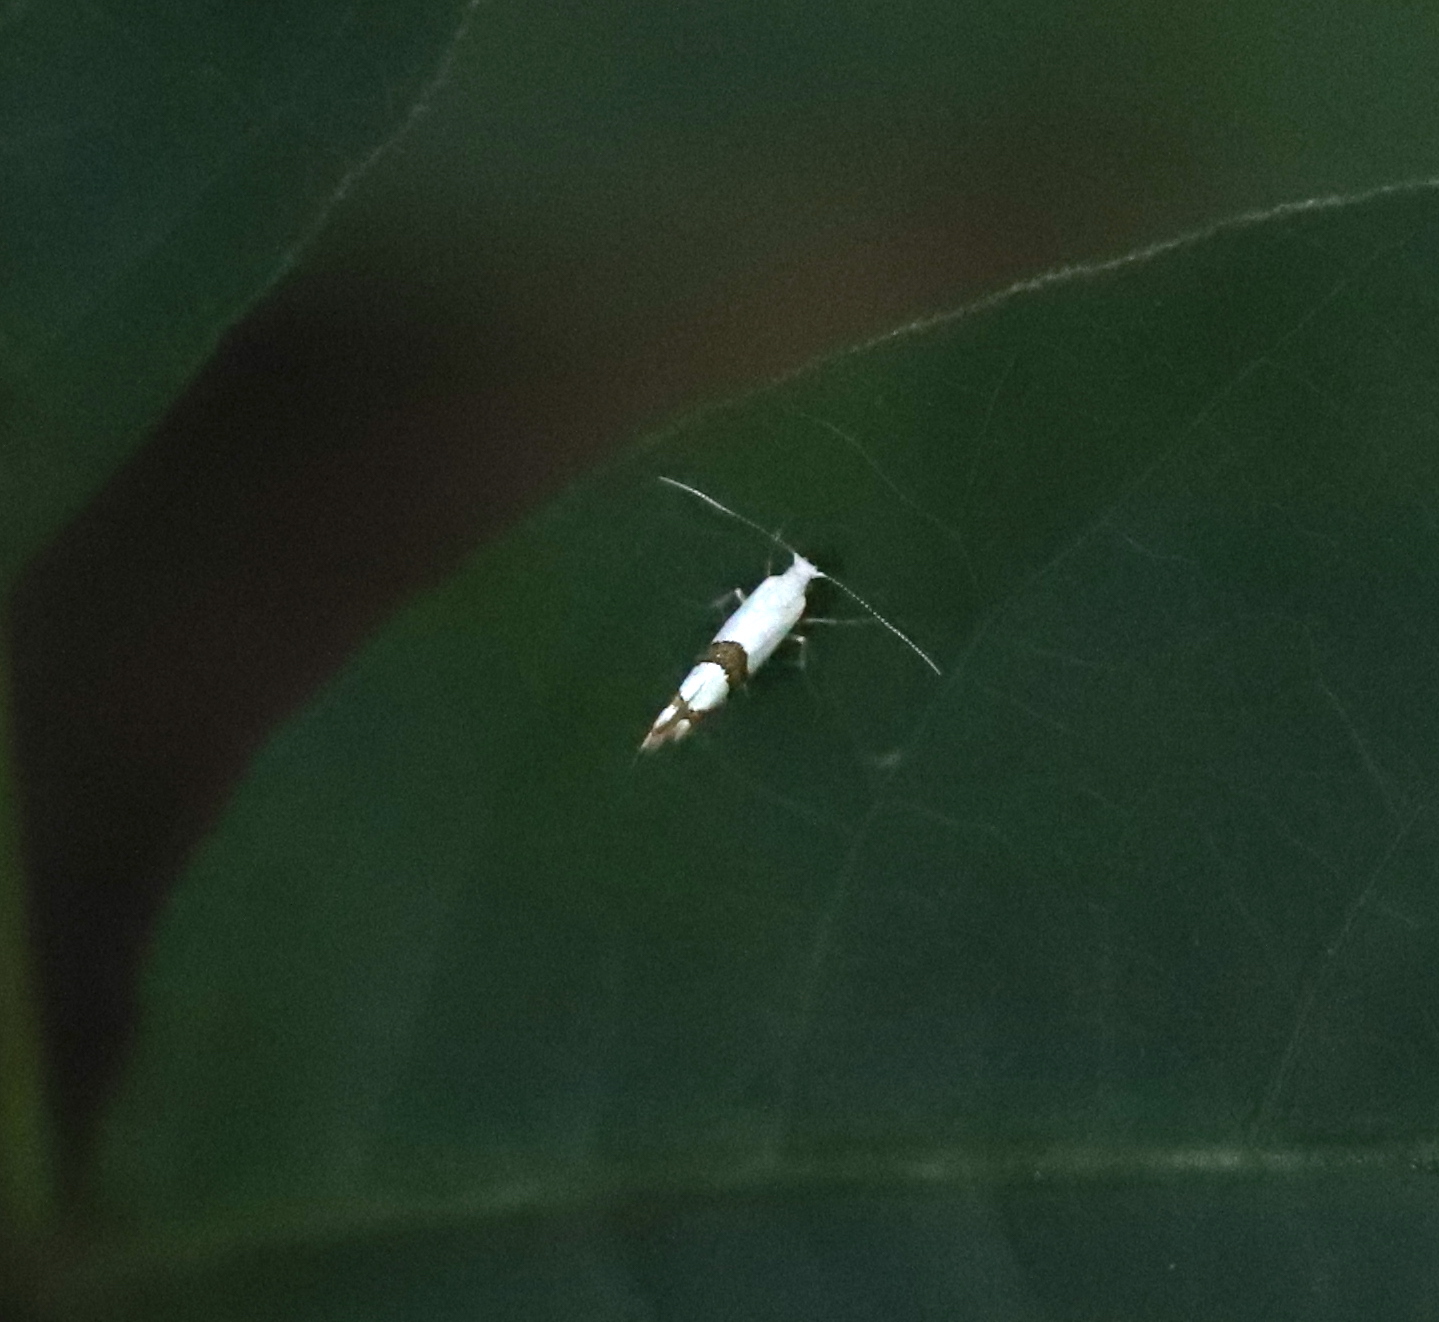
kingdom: Animalia
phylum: Arthropoda
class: Insecta
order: Lepidoptera
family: Argyresthiidae
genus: Argyresthia
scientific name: Argyresthia oreasella
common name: Cherry shoot borer moth
